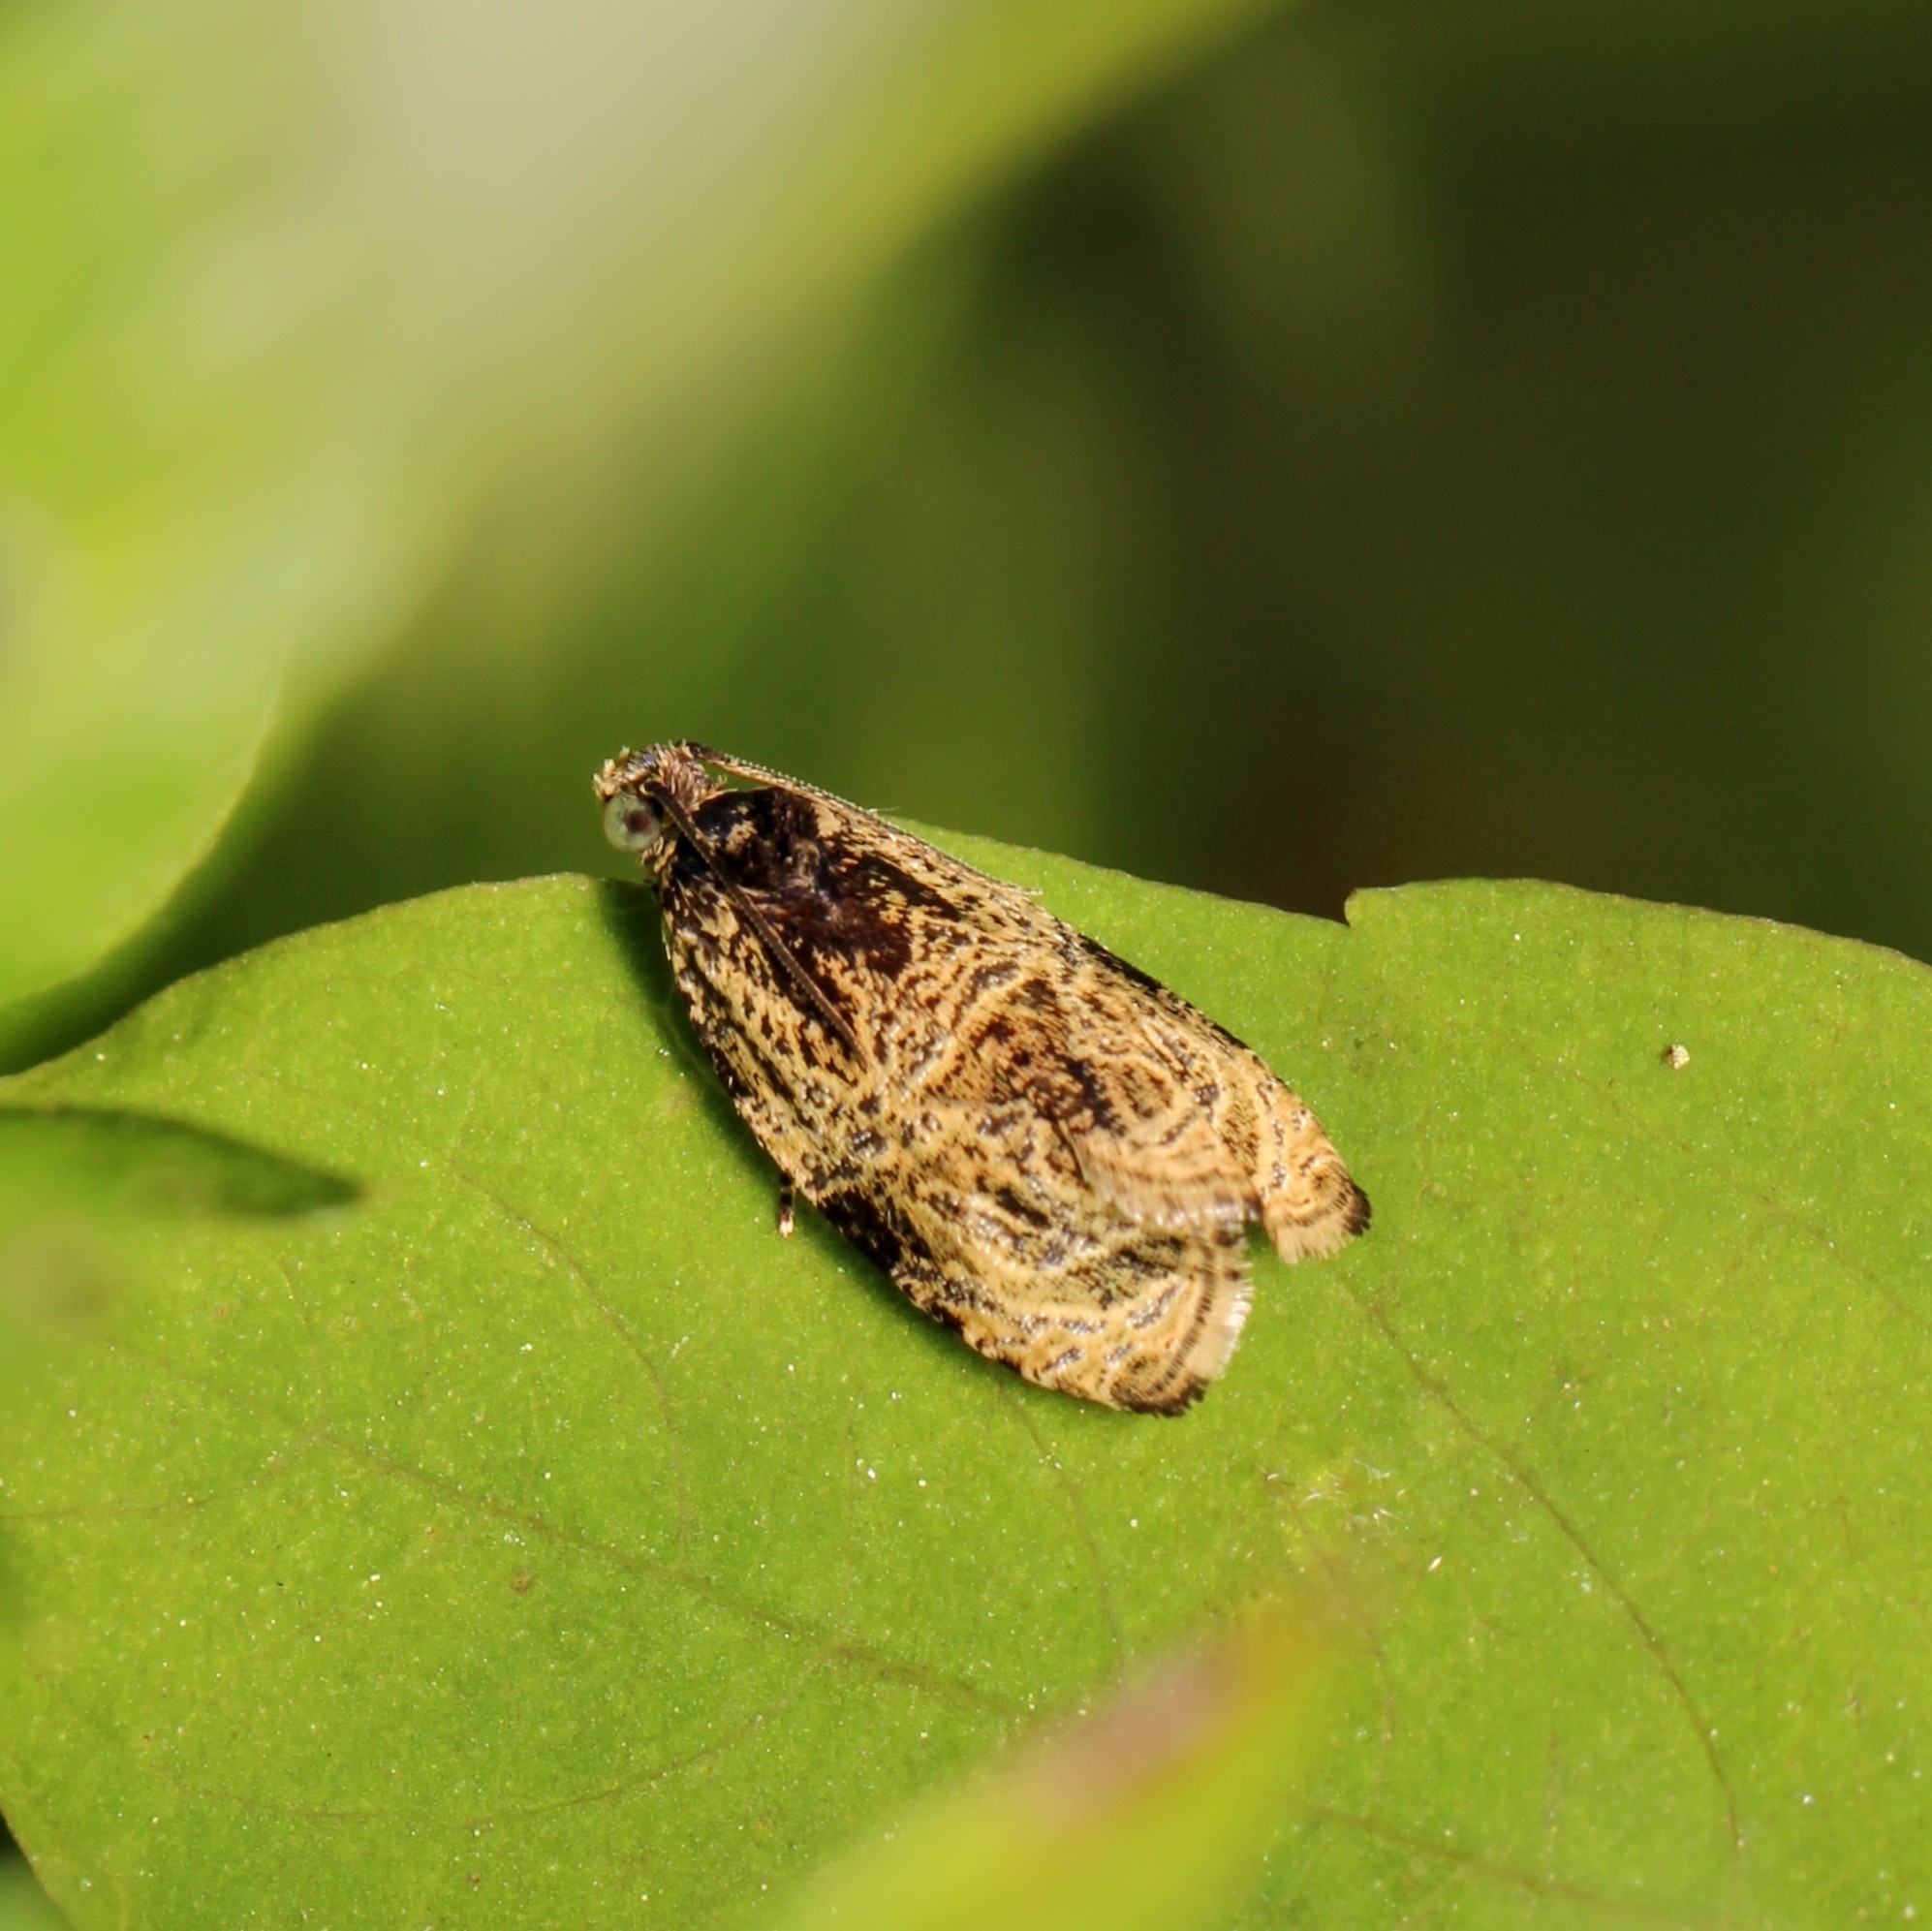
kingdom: Animalia
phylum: Arthropoda
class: Insecta
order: Lepidoptera
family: Tortricidae
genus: Olethreutes
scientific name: Olethreutes concinnana
